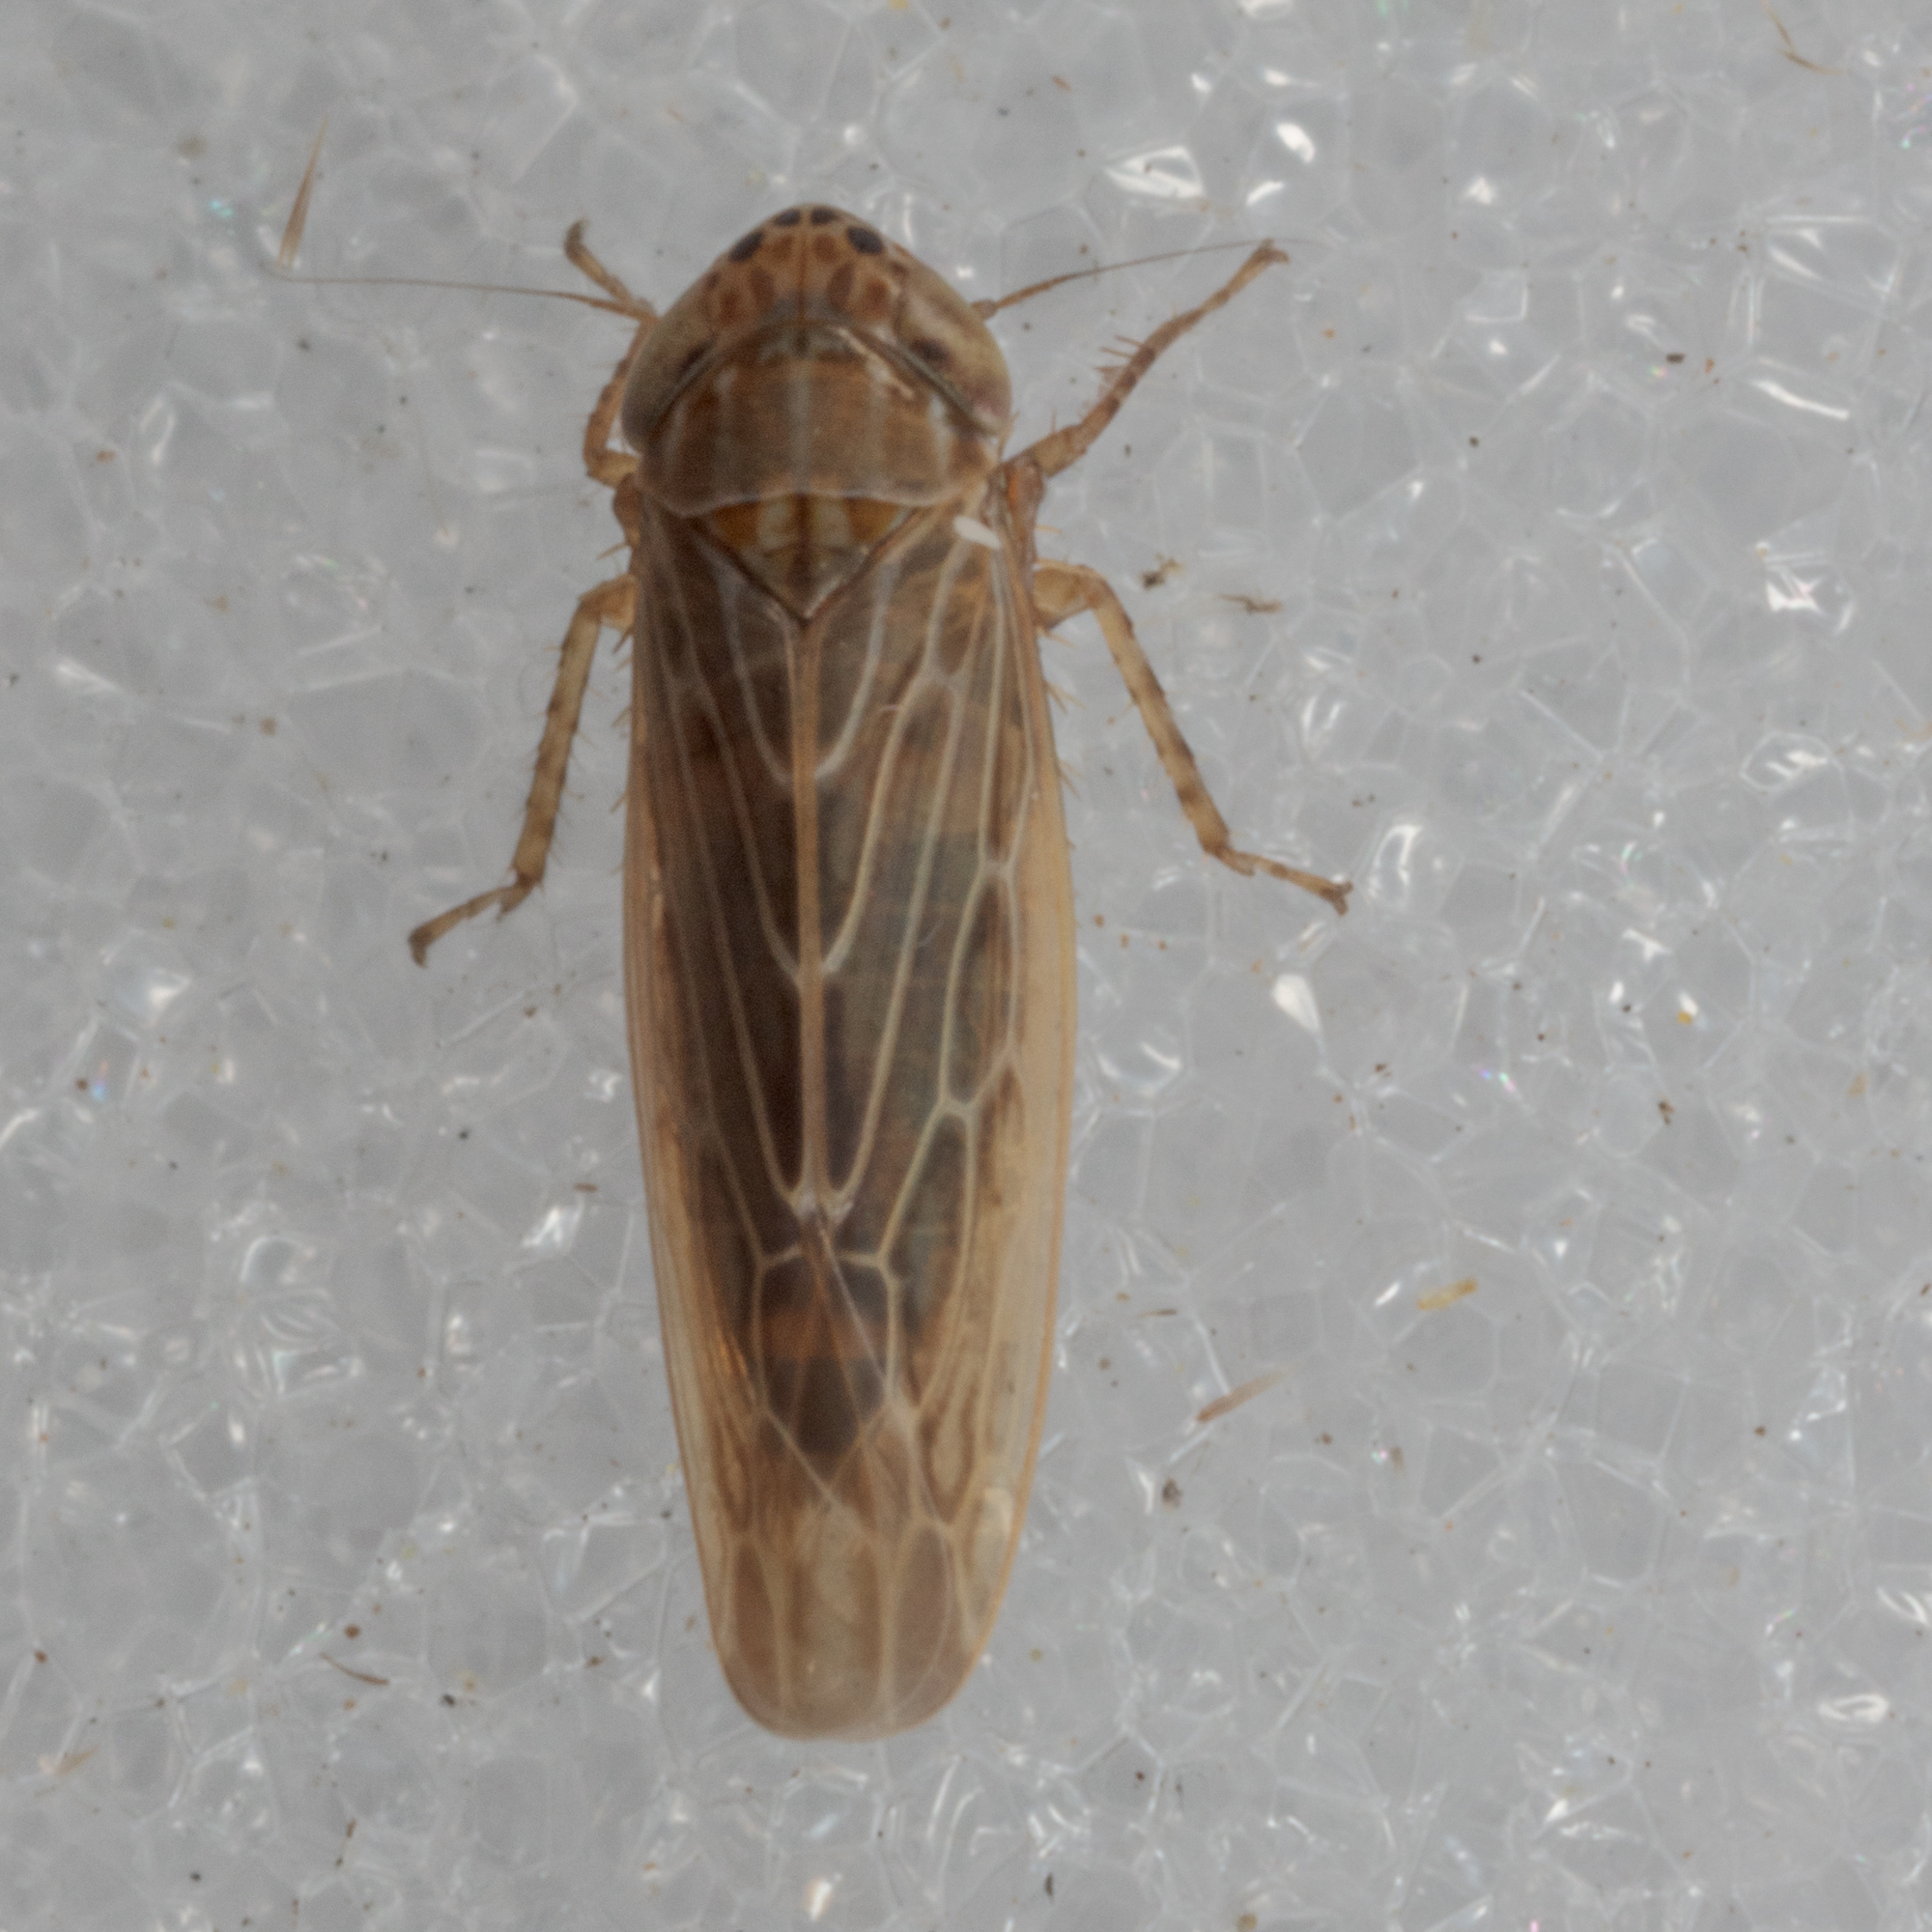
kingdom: Animalia
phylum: Arthropoda
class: Insecta
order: Hemiptera
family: Cicadellidae
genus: Graminella
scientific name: Graminella sonora
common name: Lesser lawn leafhopper
